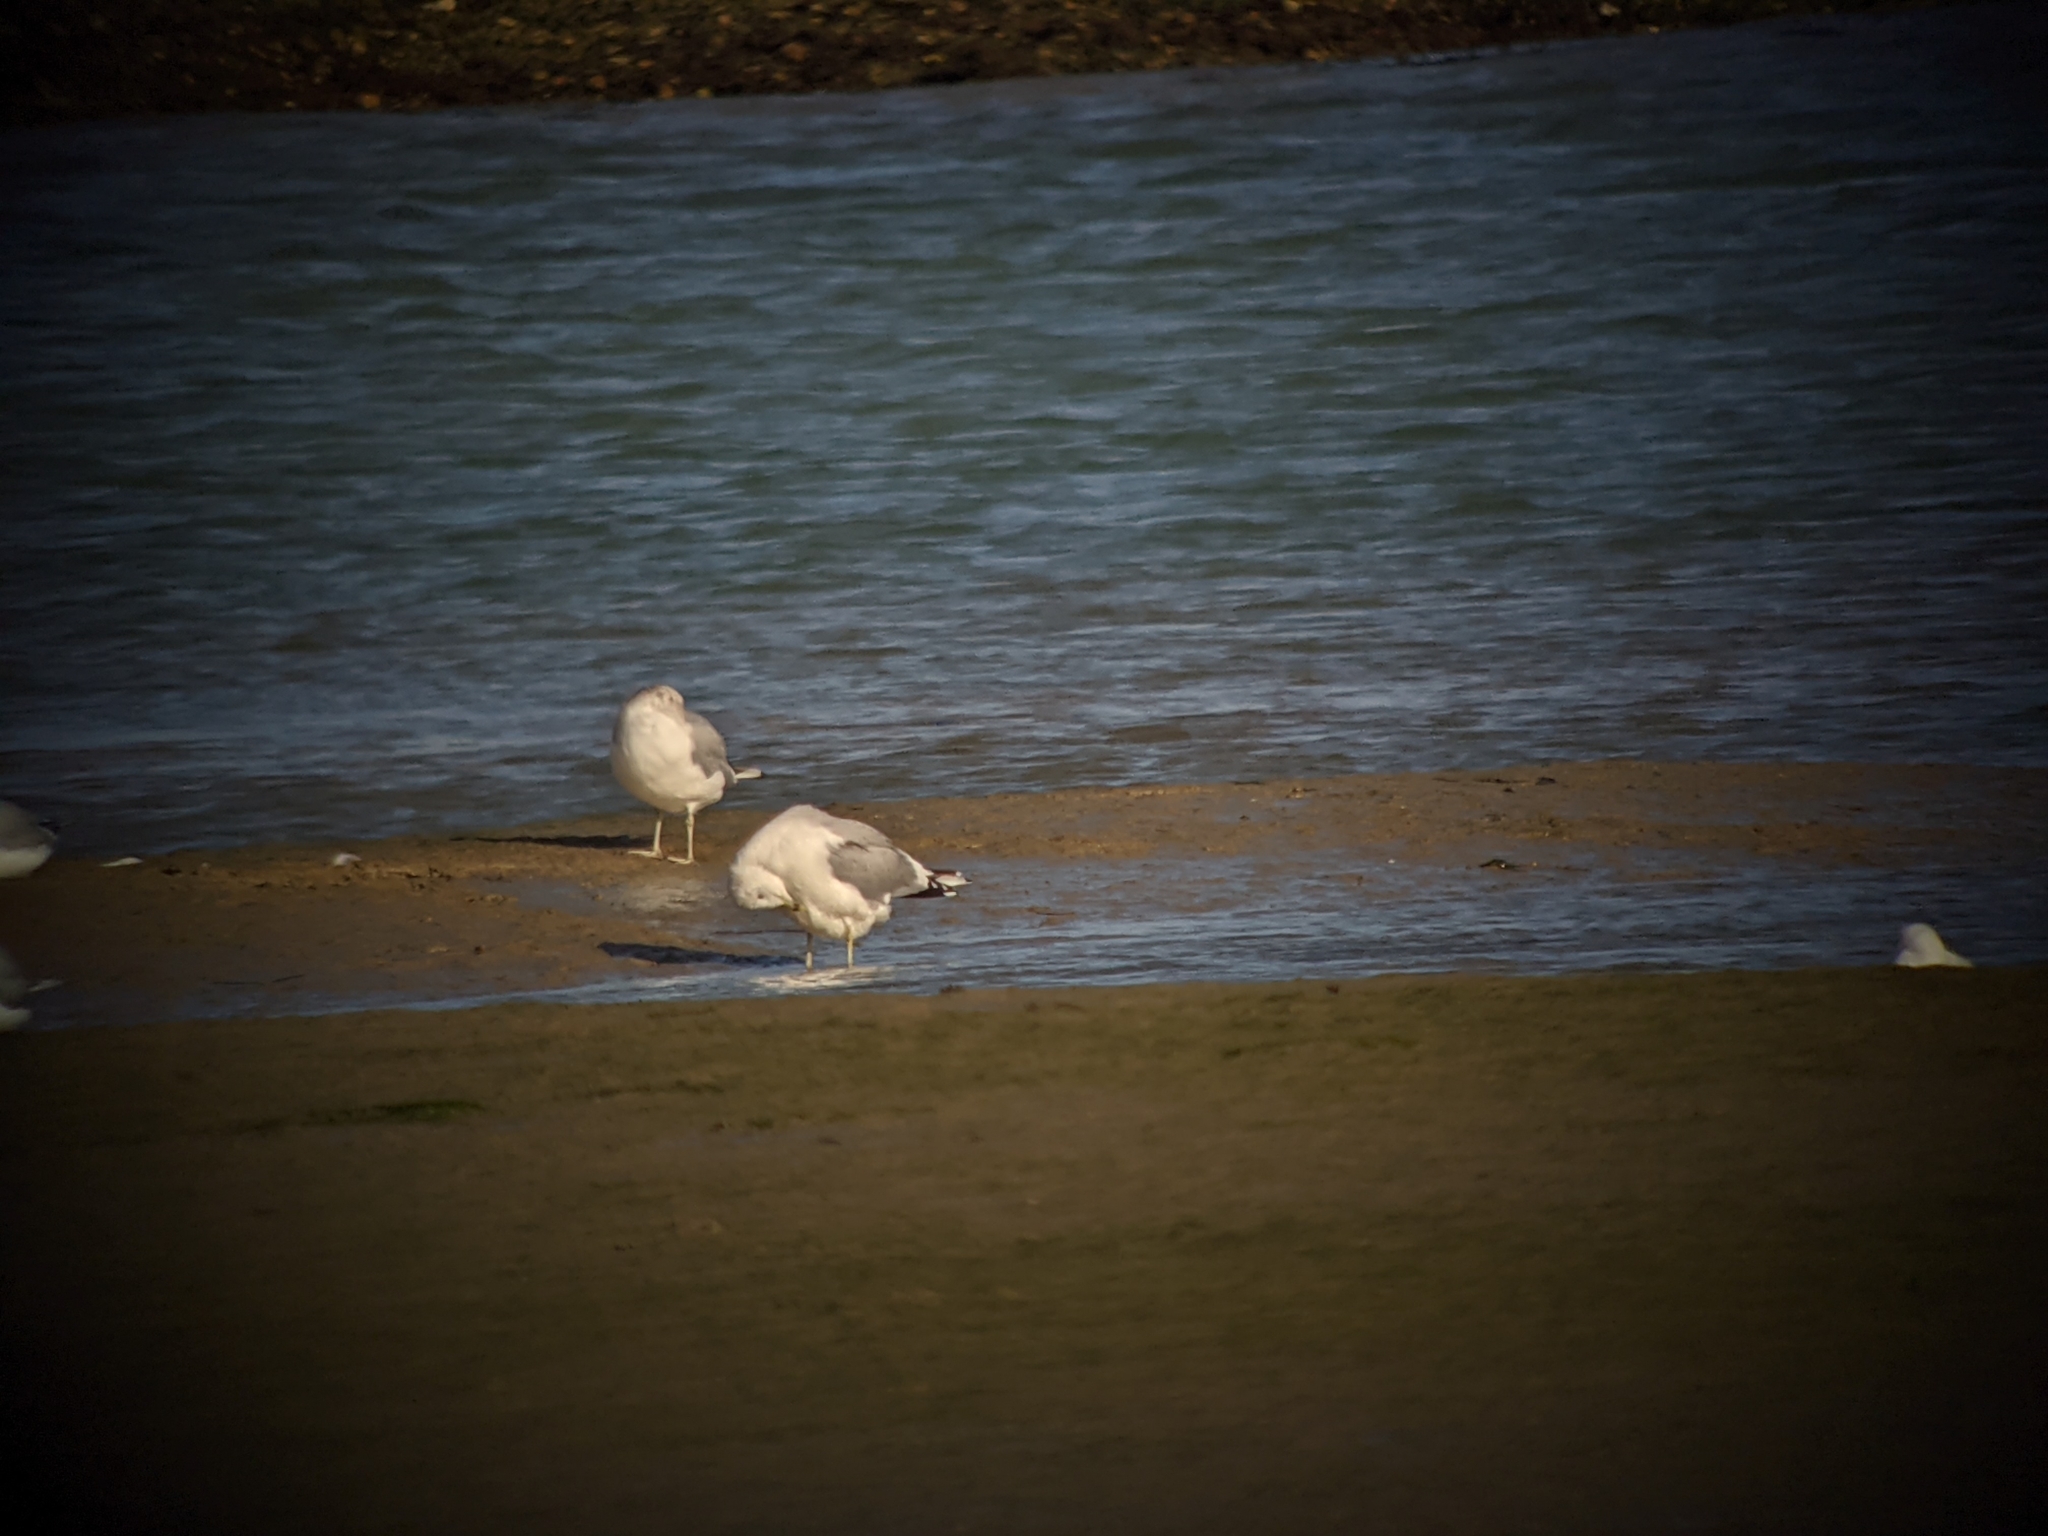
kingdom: Animalia
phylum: Chordata
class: Aves
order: Charadriiformes
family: Laridae
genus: Larus
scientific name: Larus canus
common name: Mew gull
